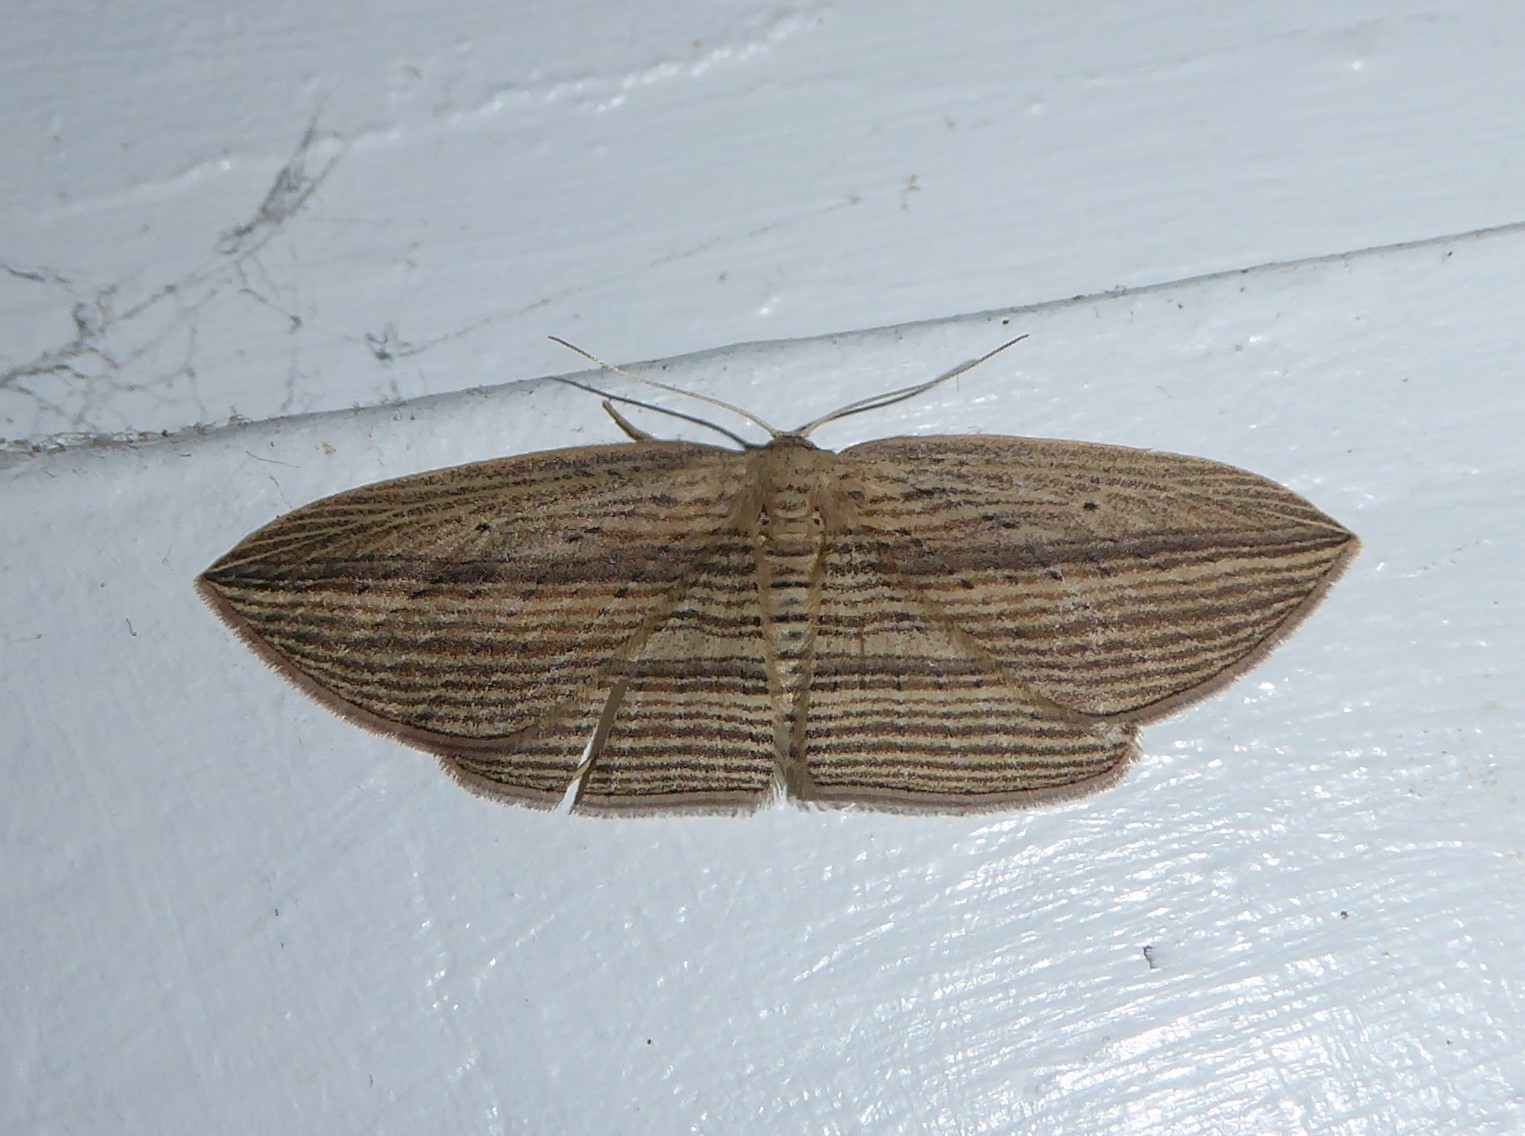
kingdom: Animalia
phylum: Arthropoda
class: Insecta
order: Lepidoptera
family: Geometridae
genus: Epiphryne
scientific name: Epiphryne verriculata
